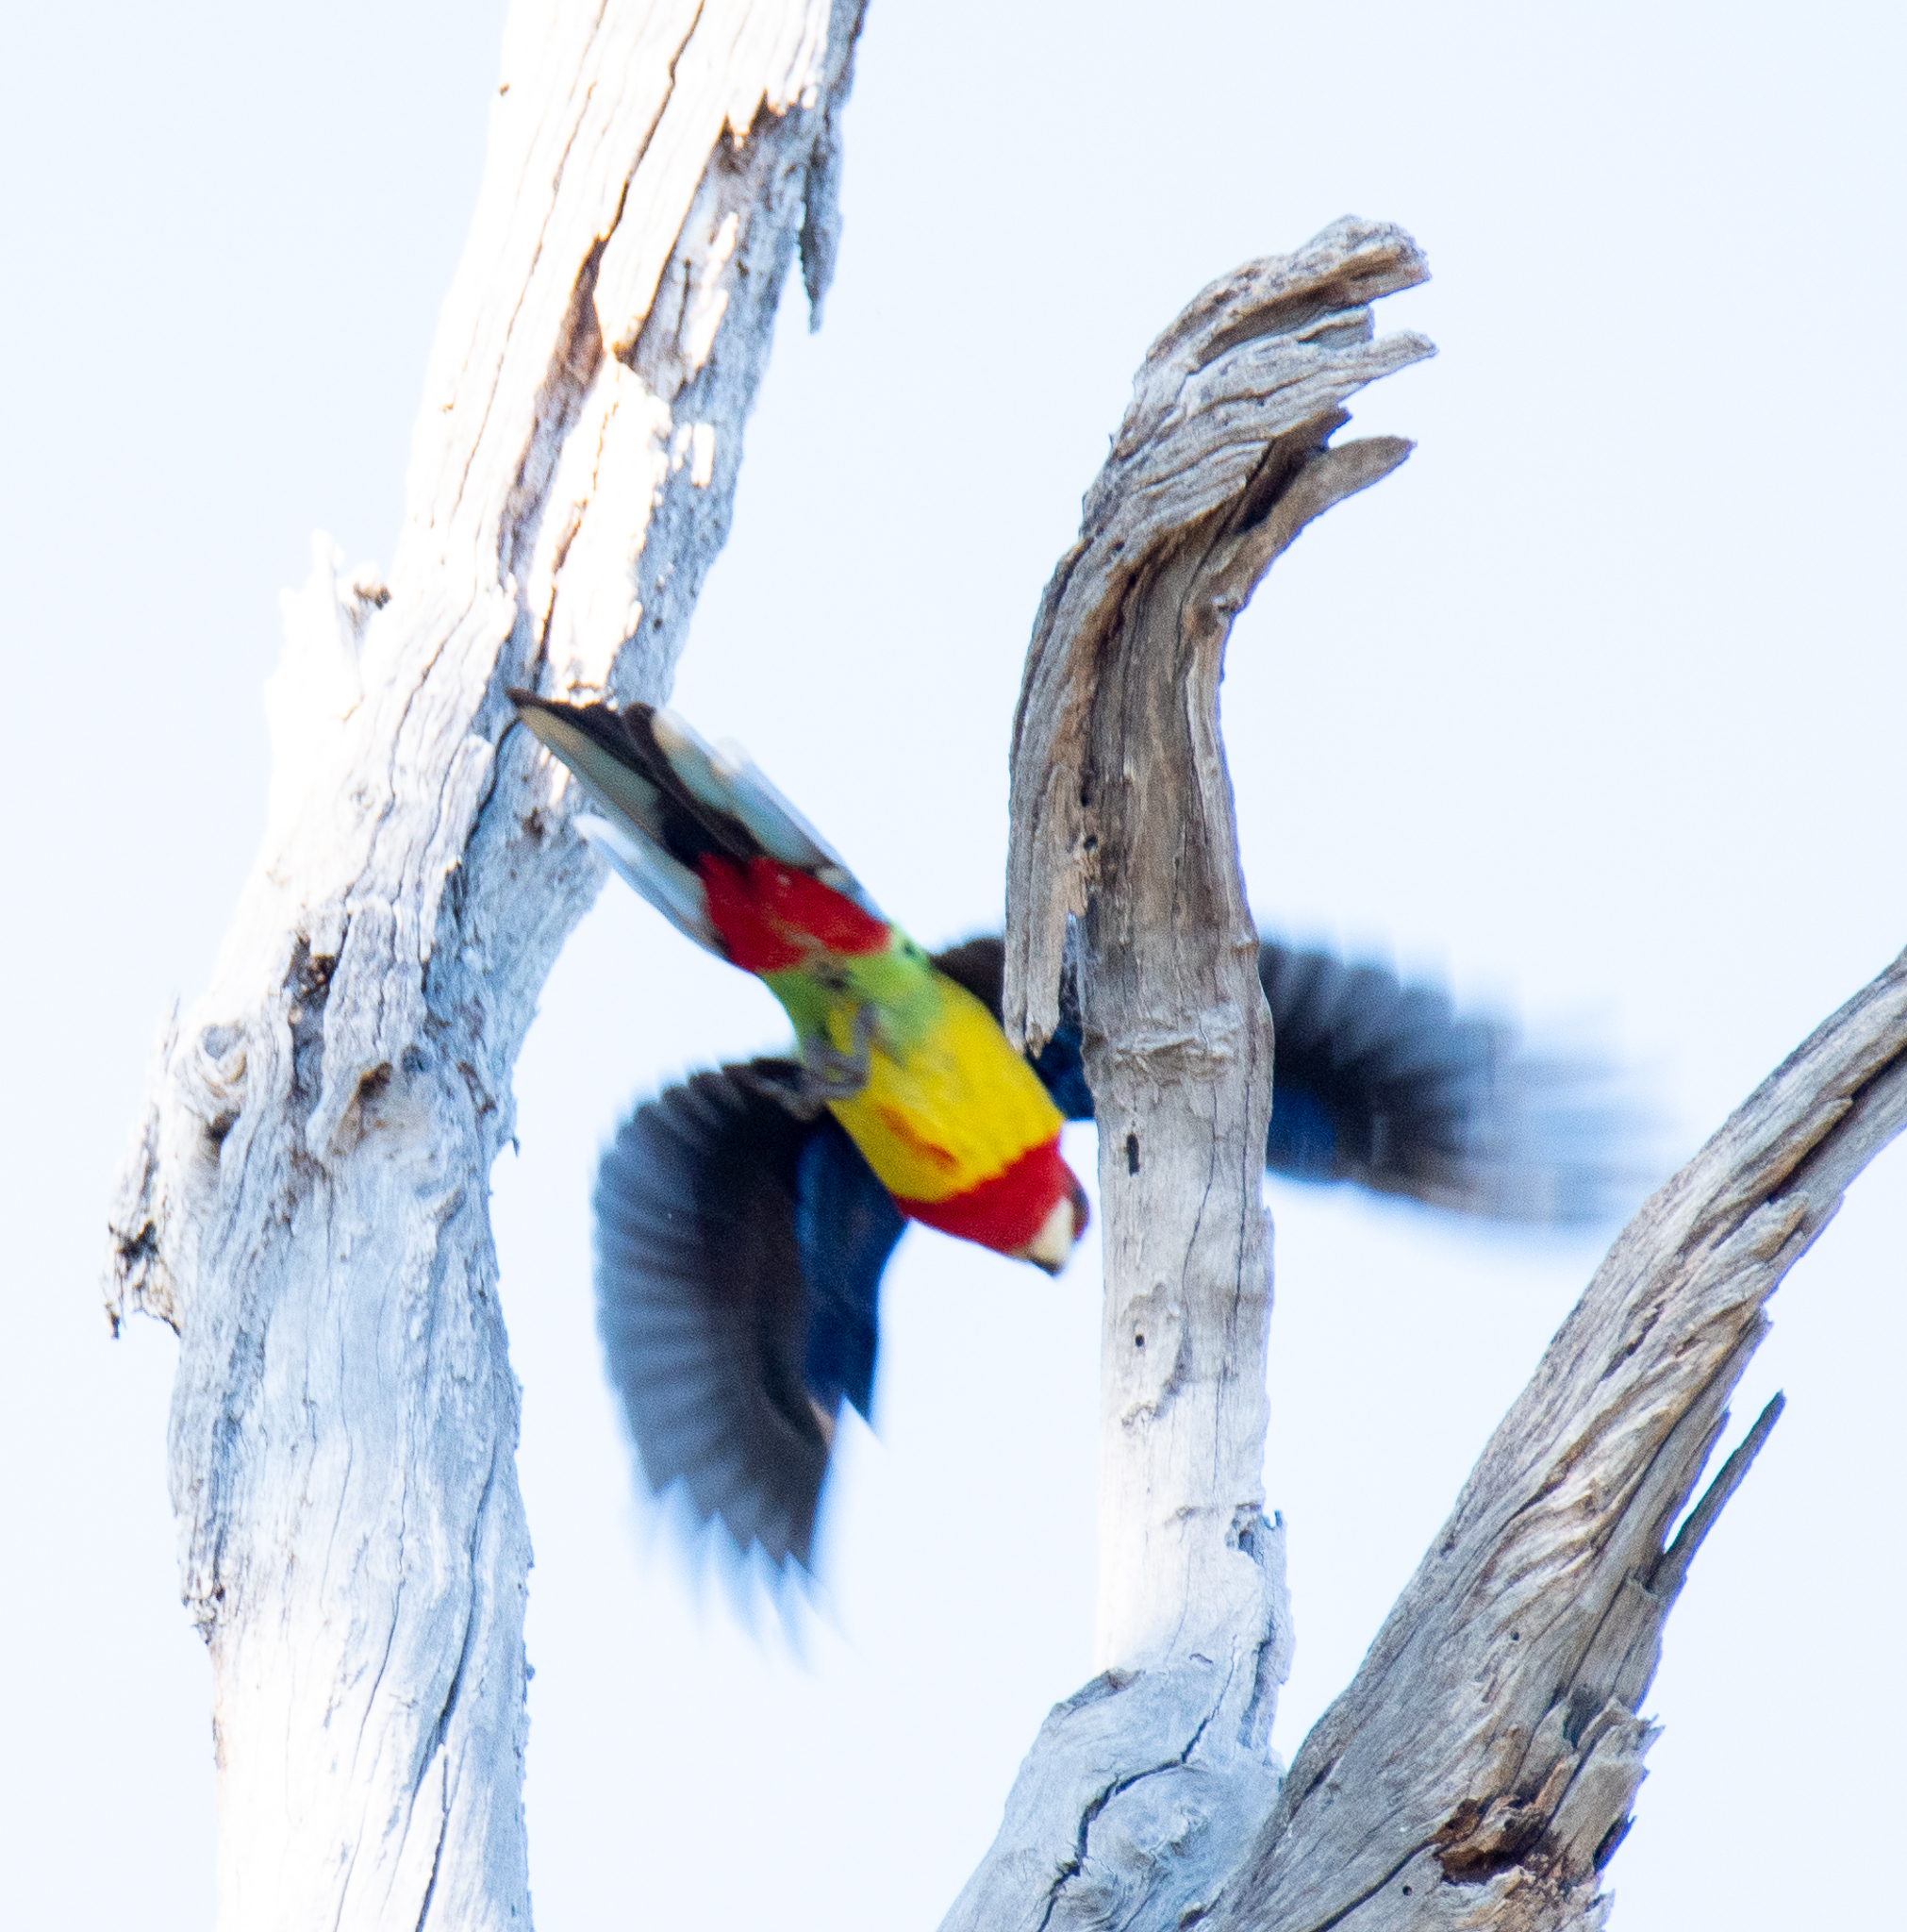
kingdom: Animalia
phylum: Chordata
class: Aves
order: Psittaciformes
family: Psittacidae
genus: Platycercus
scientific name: Platycercus eximius
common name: Eastern rosella
